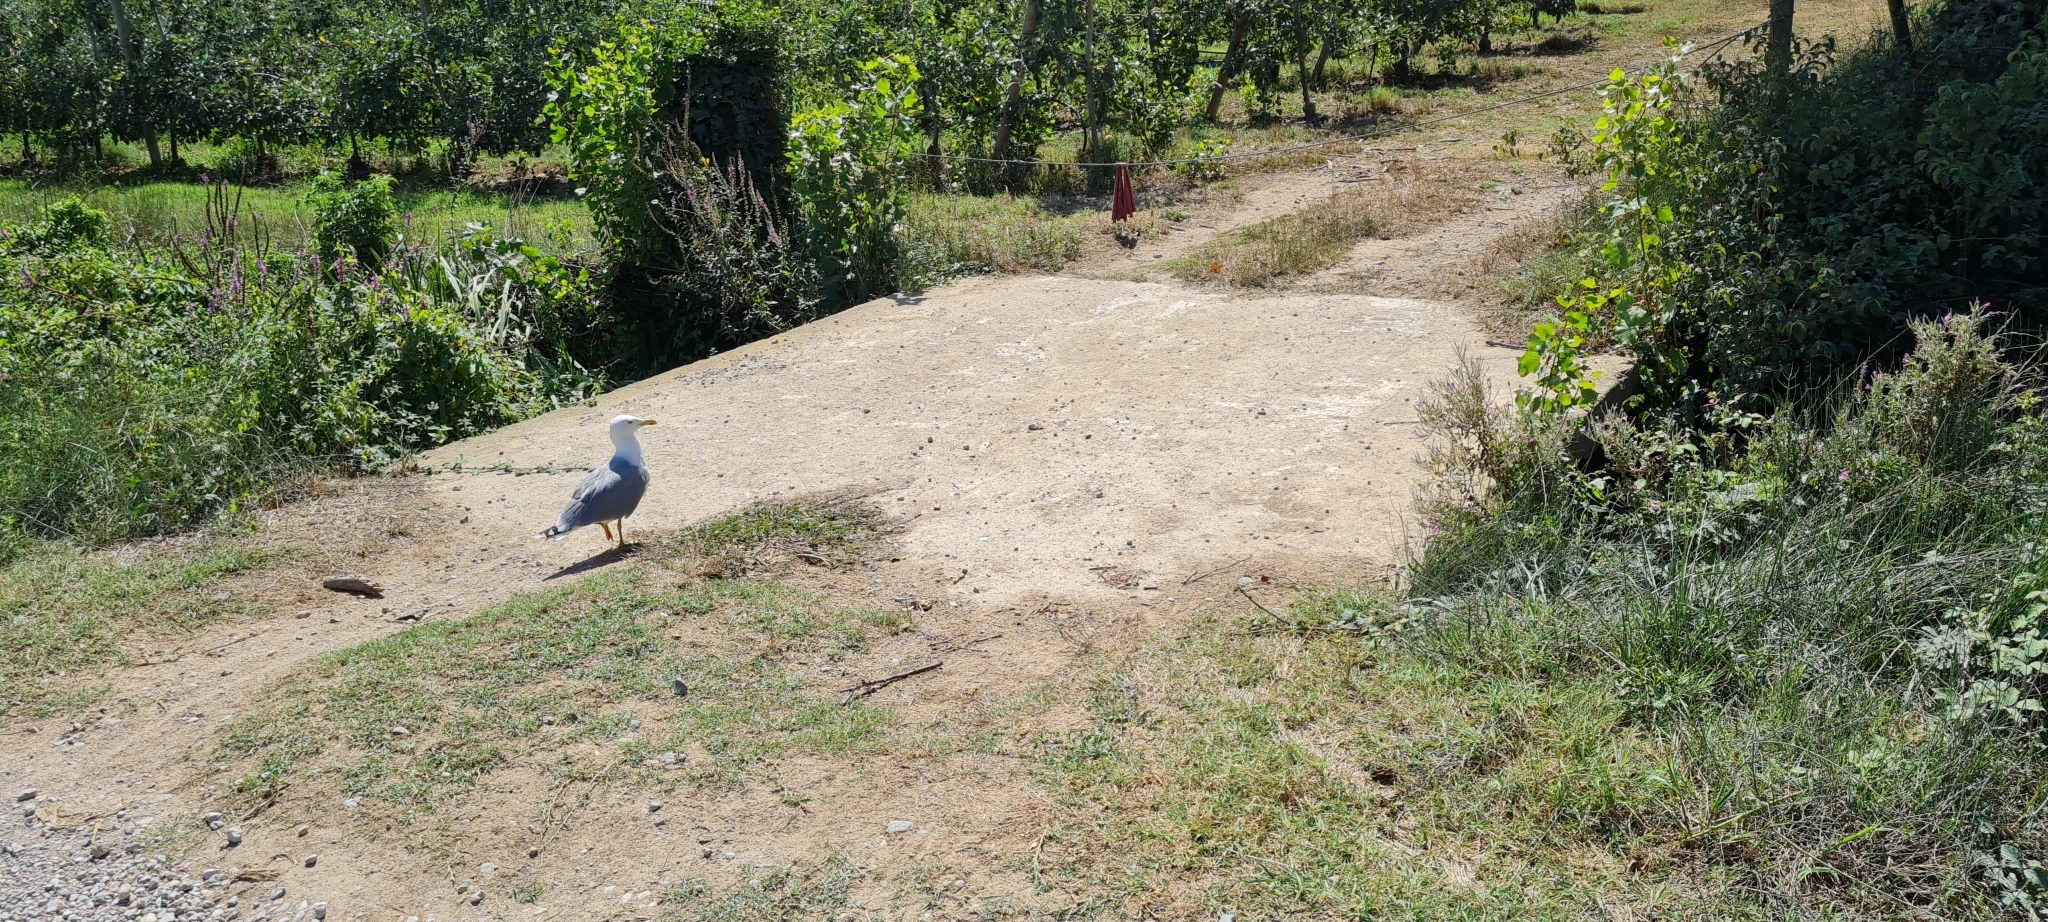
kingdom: Animalia
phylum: Chordata
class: Aves
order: Charadriiformes
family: Laridae
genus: Larus
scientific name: Larus michahellis
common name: Yellow-legged gull
